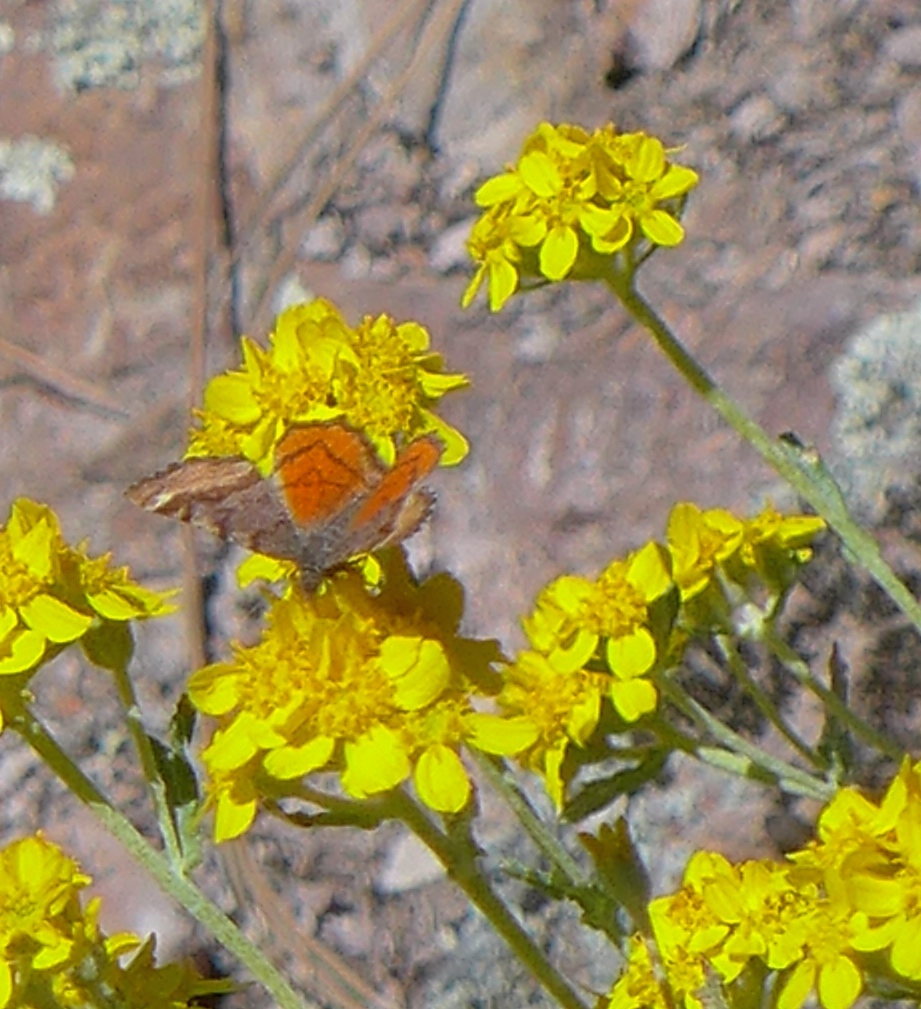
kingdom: Animalia
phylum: Arthropoda
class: Insecta
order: Lepidoptera
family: Geometridae
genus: Dasyfidonia
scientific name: Dasyfidonia avuncularia
